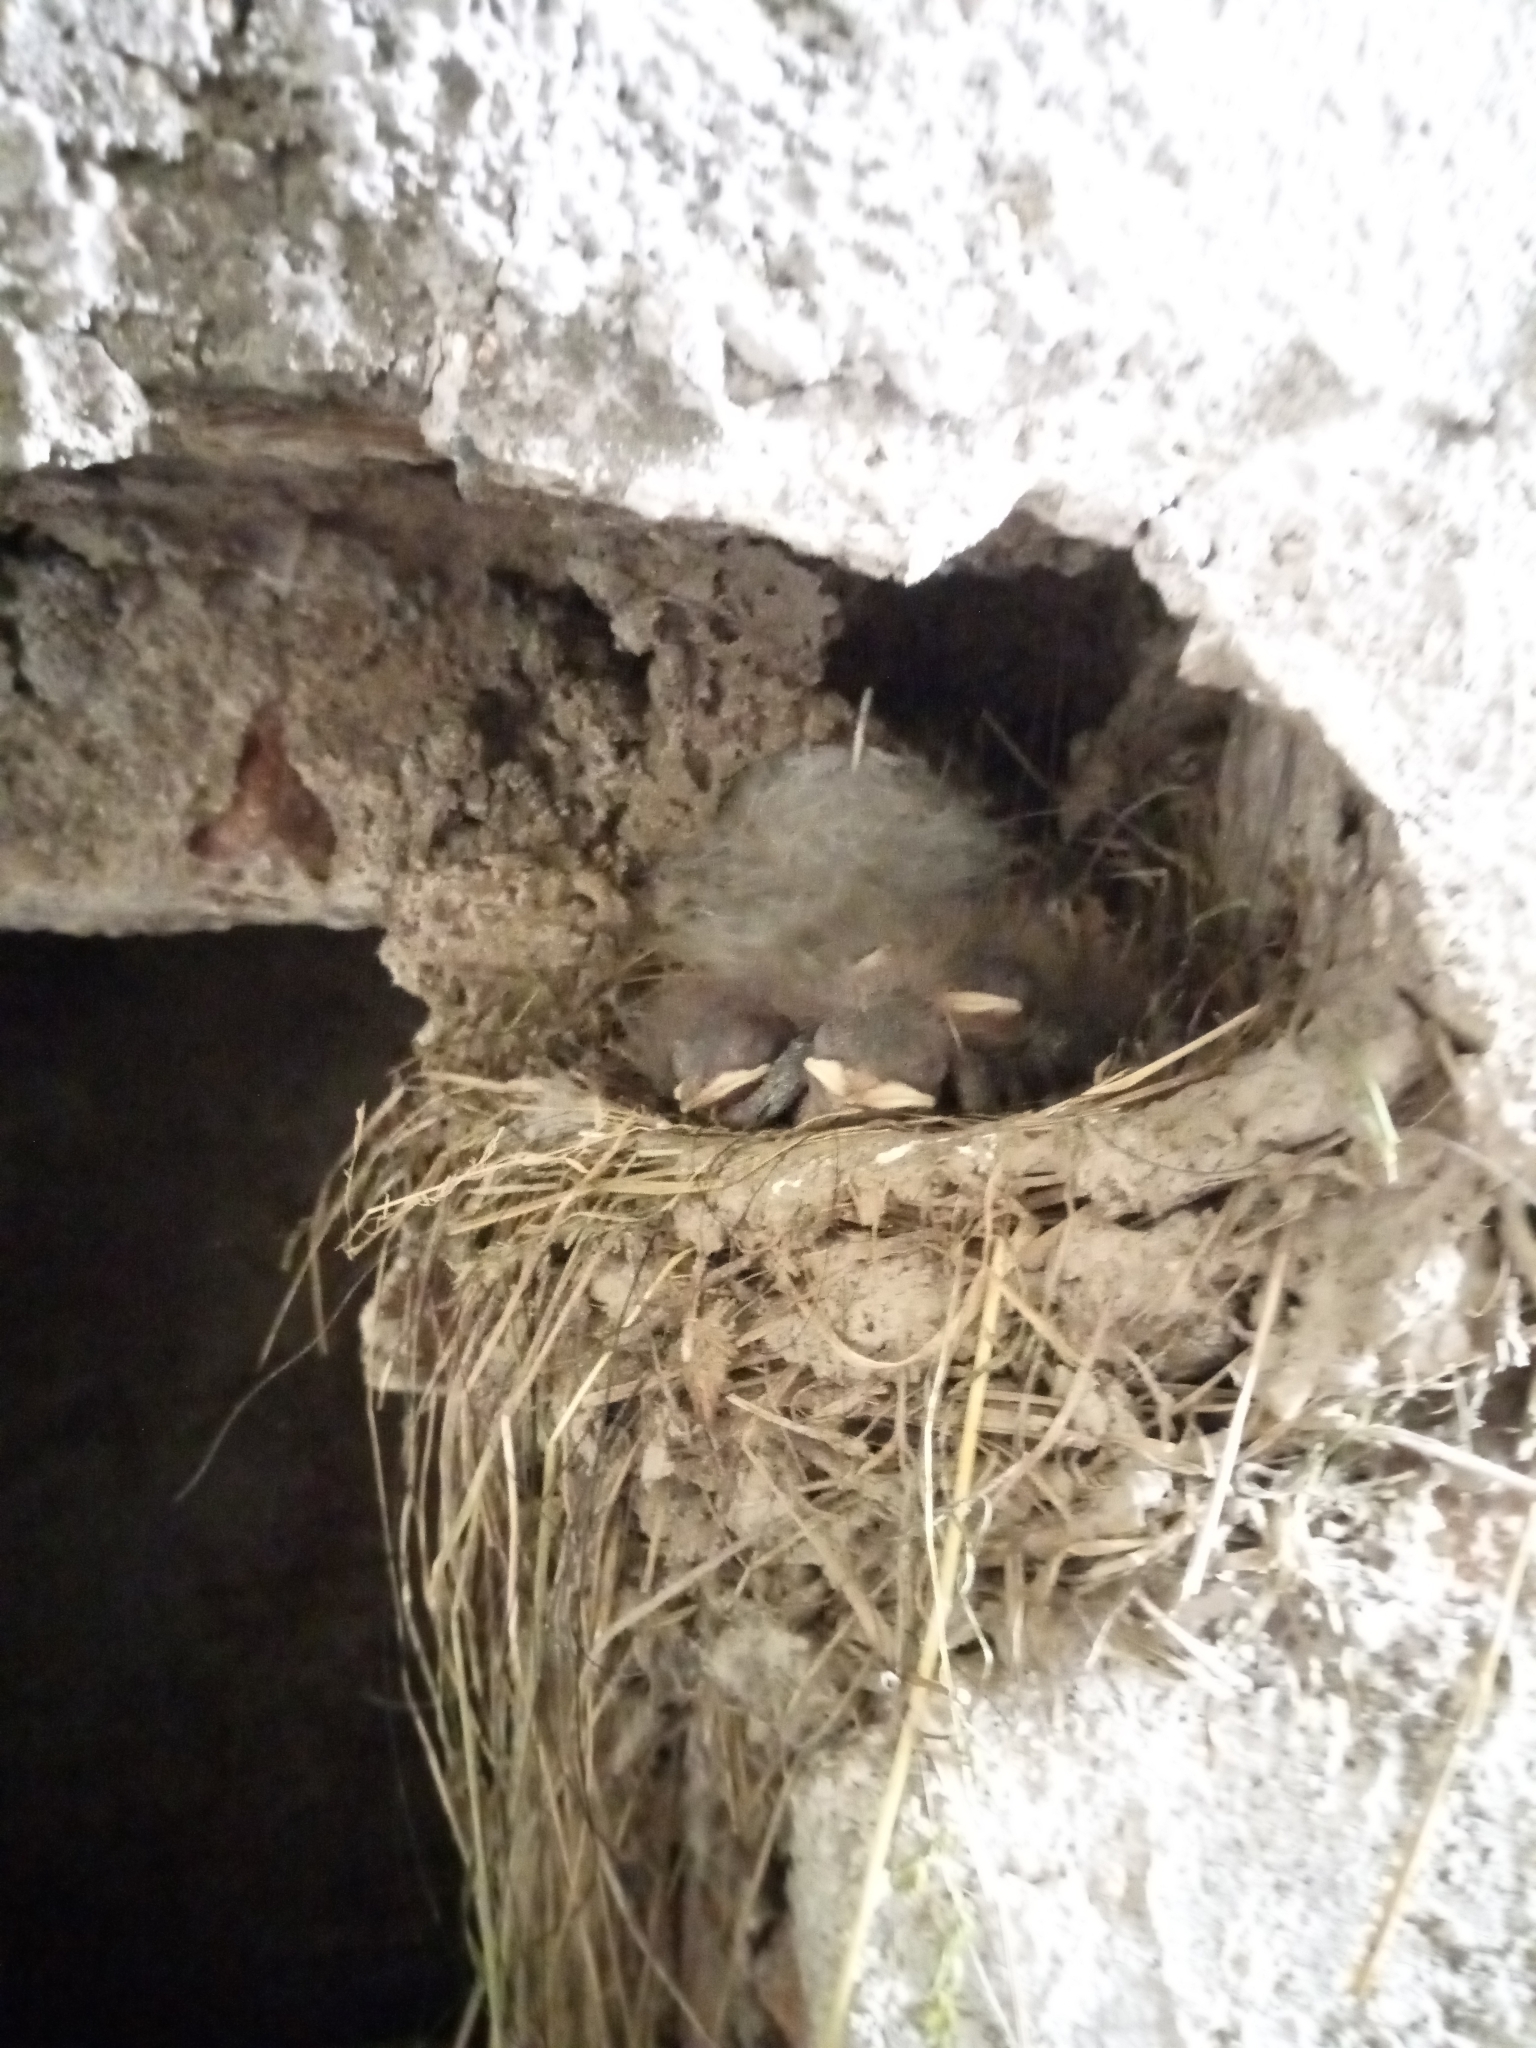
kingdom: Animalia
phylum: Chordata
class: Aves
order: Passeriformes
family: Hirundinidae
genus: Hirundo
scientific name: Hirundo rustica
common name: Barn swallow
